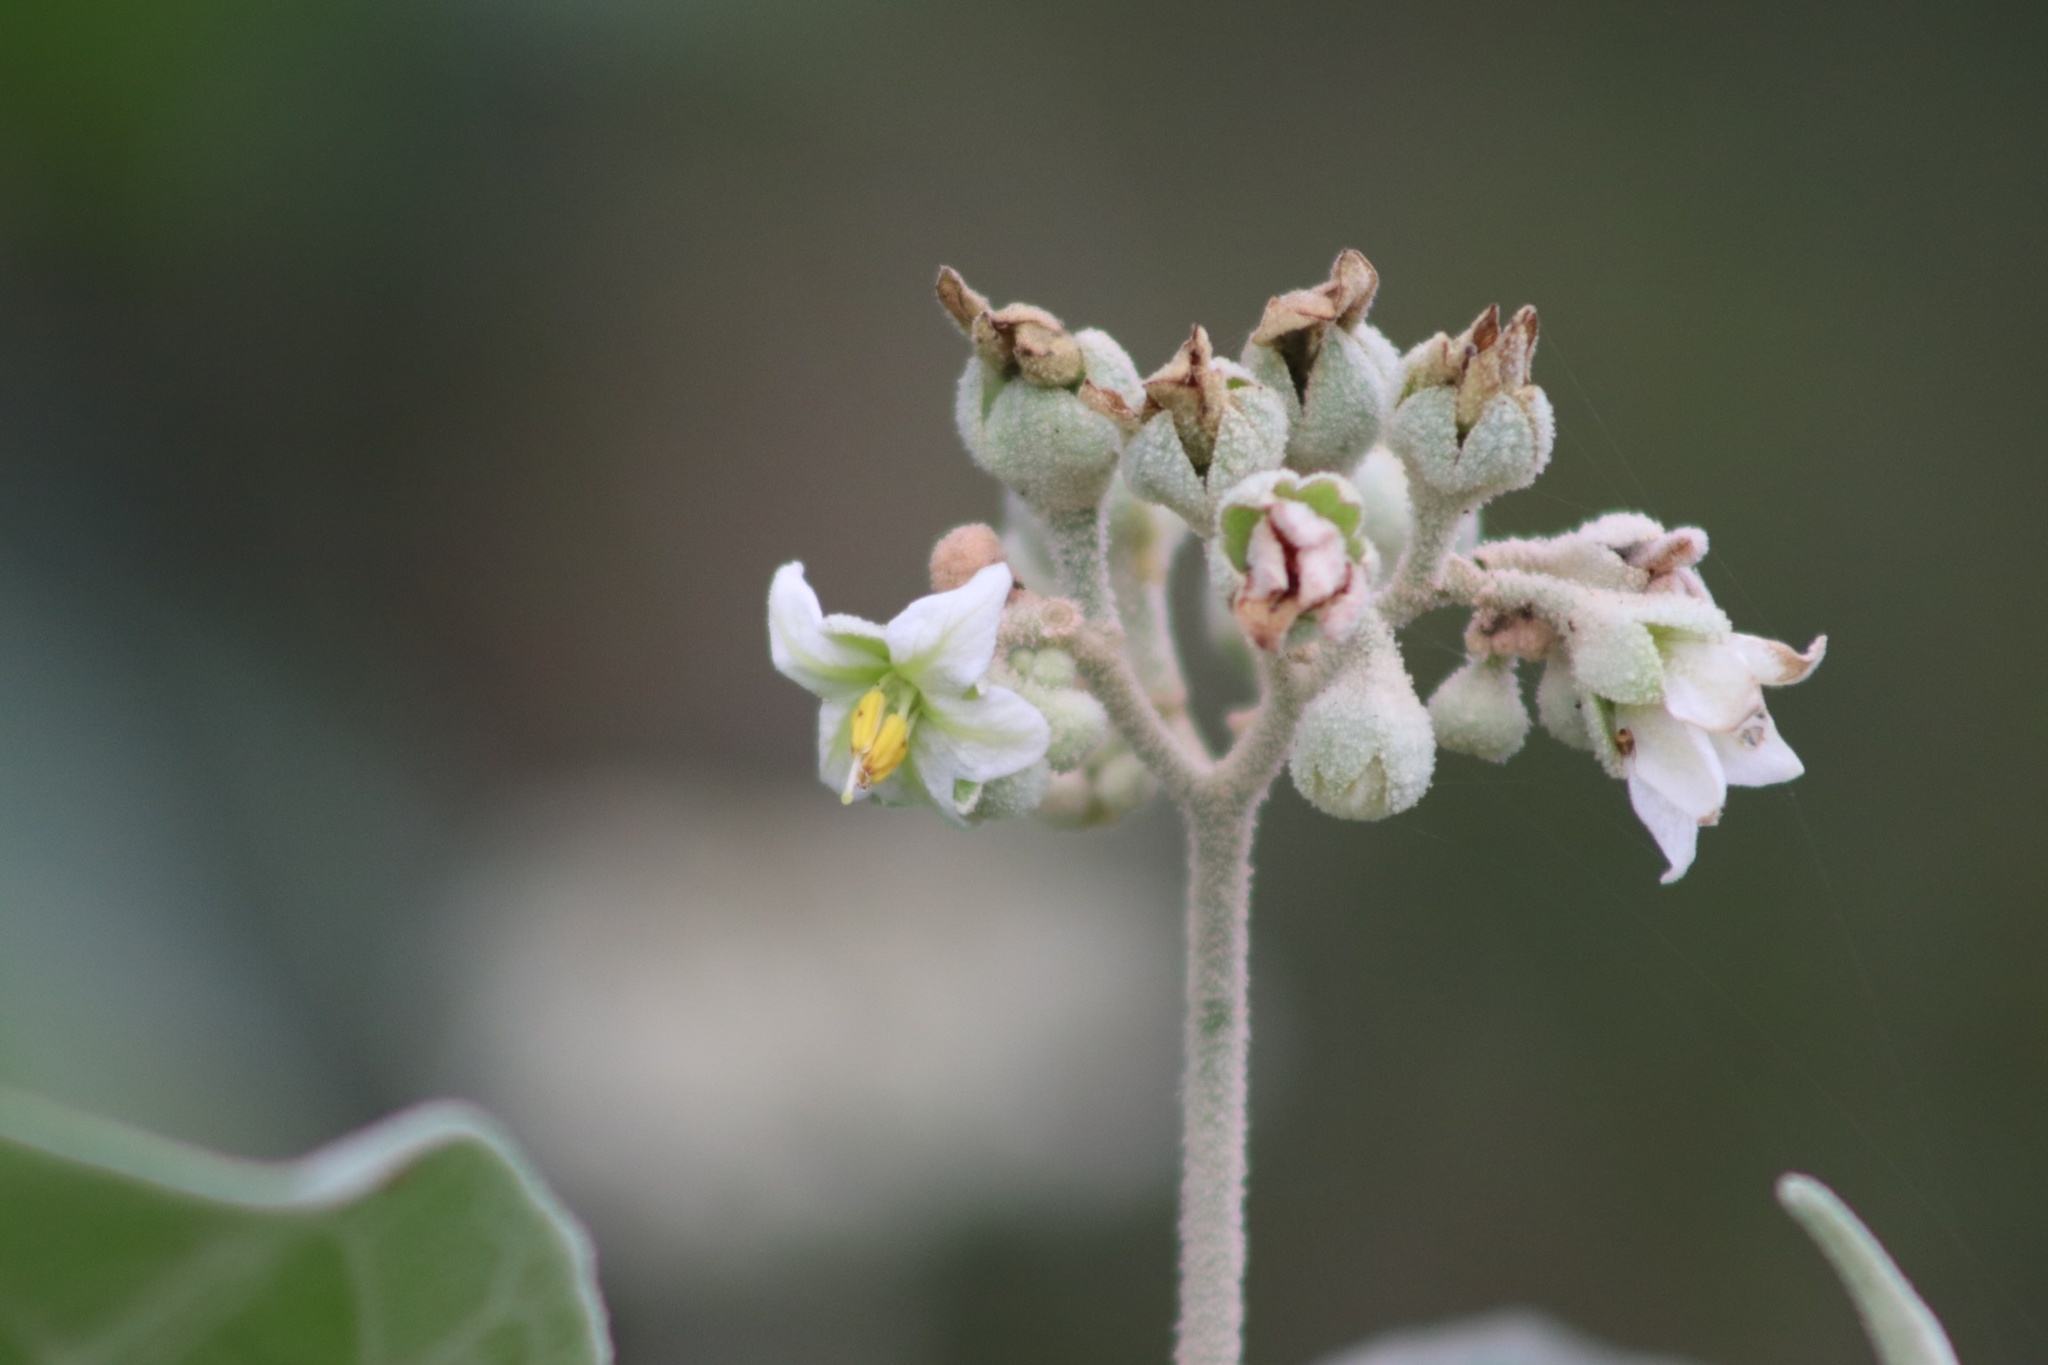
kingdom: Plantae
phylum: Tracheophyta
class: Magnoliopsida
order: Solanales
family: Solanaceae
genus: Solanum
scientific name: Solanum erianthum
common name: Tobacco-tree
